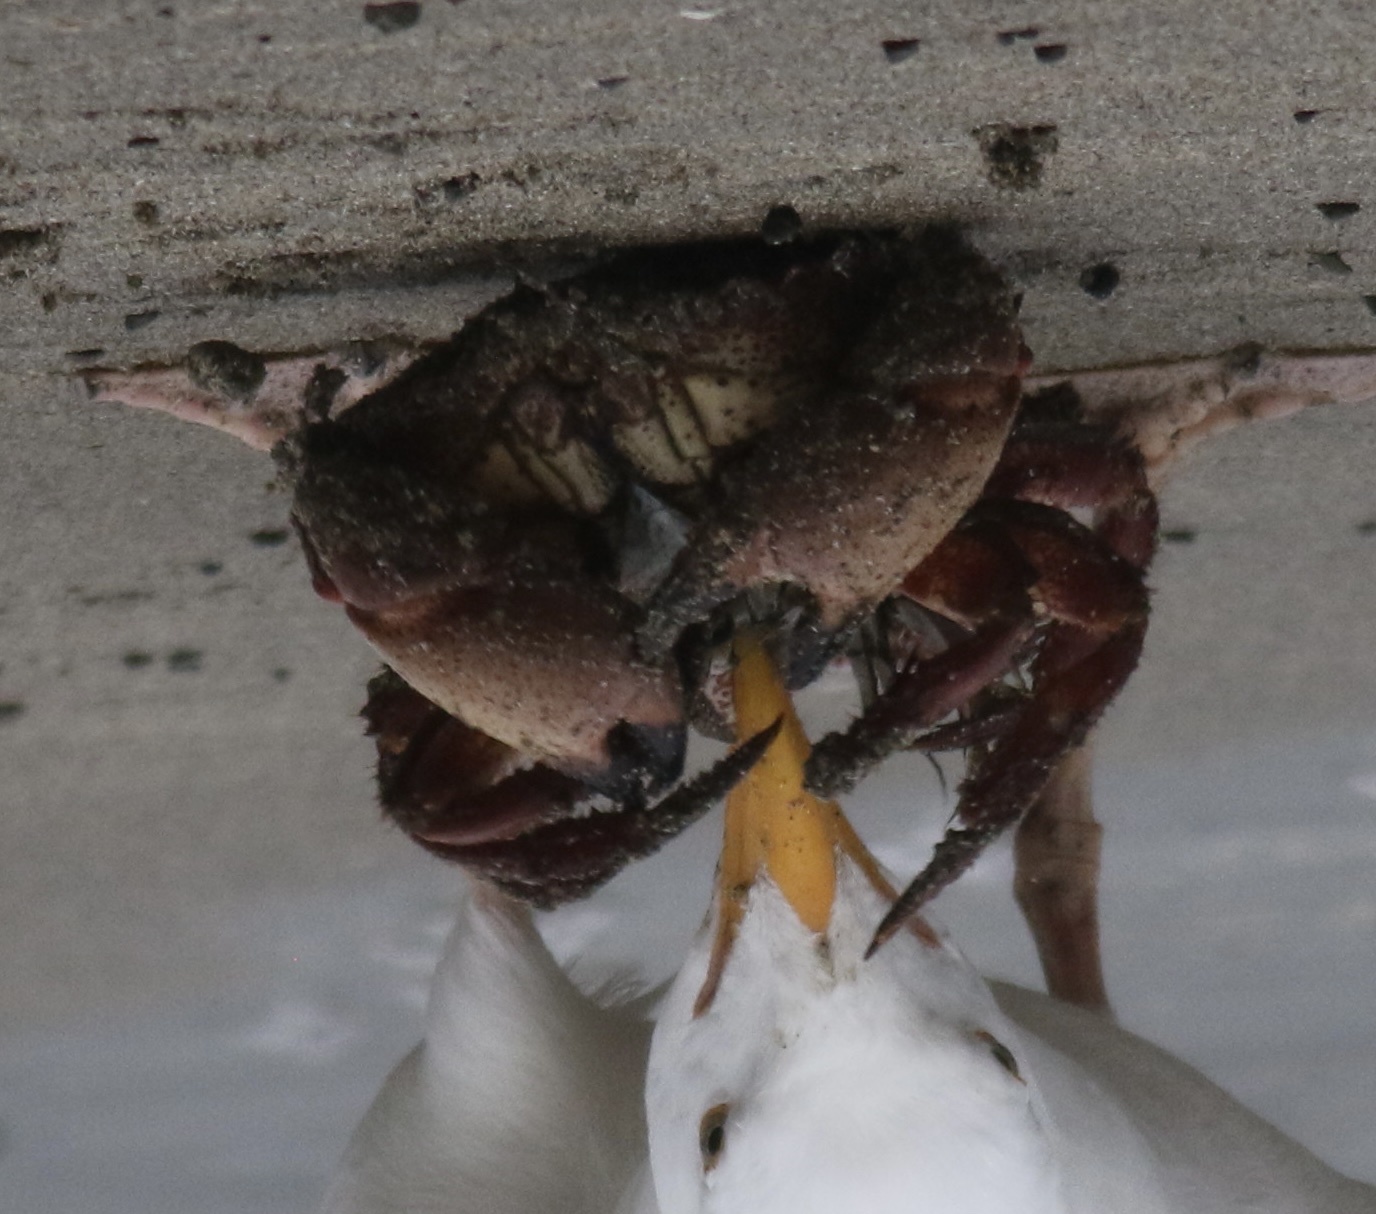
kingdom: Animalia
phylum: Arthropoda
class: Malacostraca
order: Decapoda
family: Cancridae
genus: Romaleon
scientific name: Romaleon antennarium
